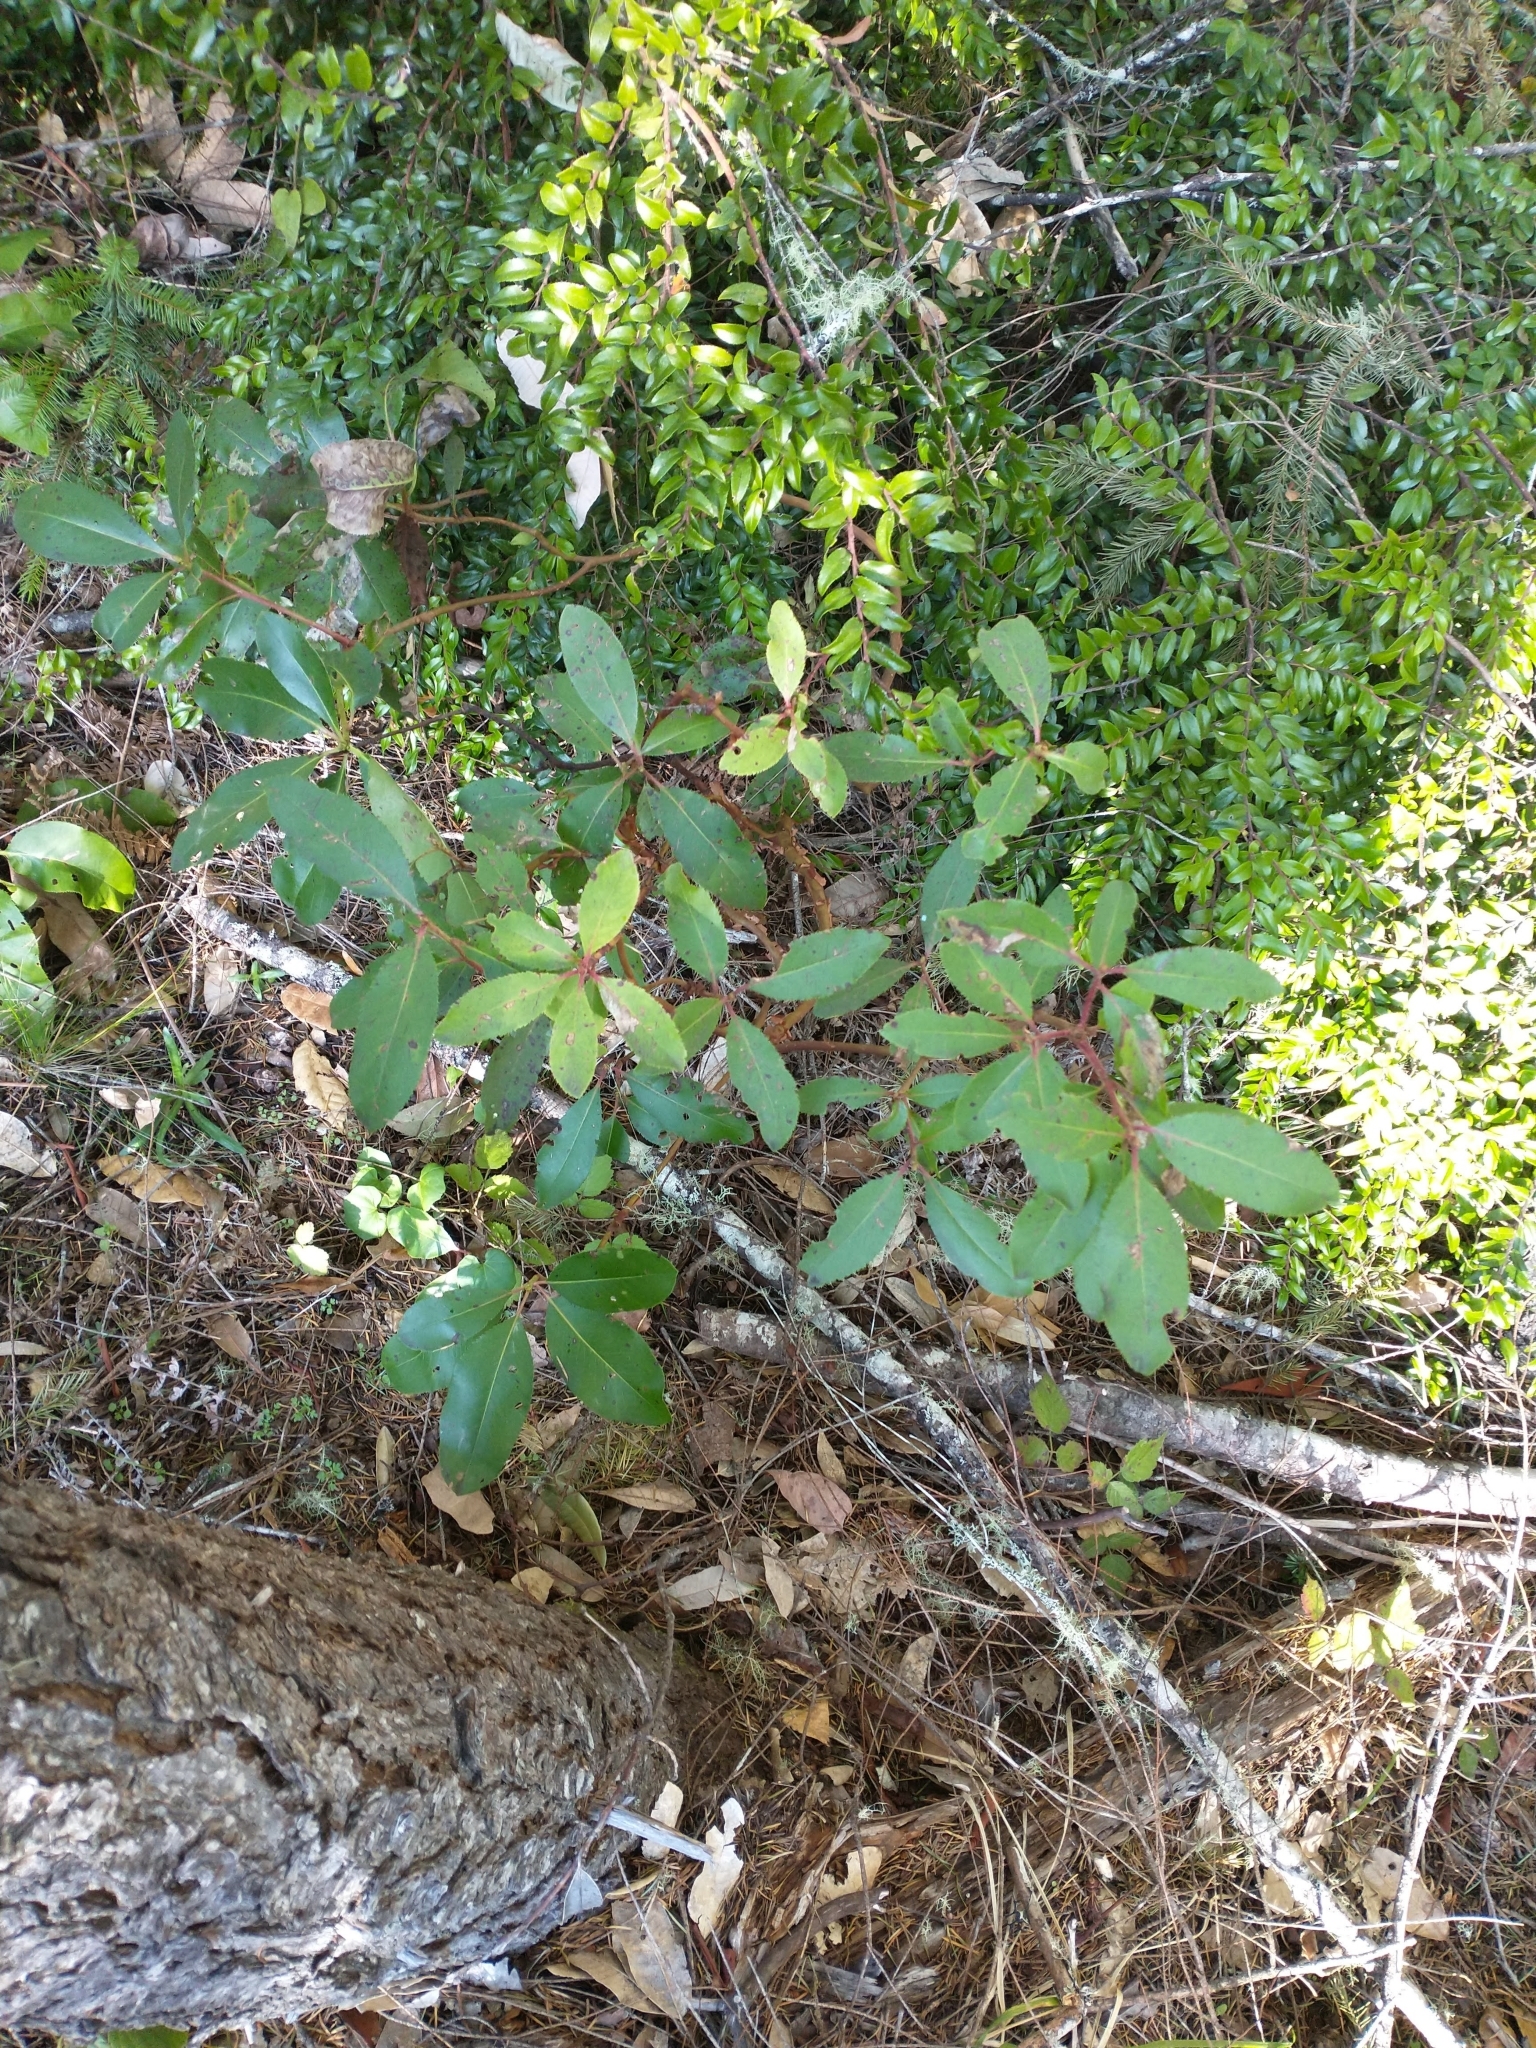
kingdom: Plantae
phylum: Tracheophyta
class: Magnoliopsida
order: Ericales
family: Ericaceae
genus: Vaccinium
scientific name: Vaccinium ovatum
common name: California-huckleberry
